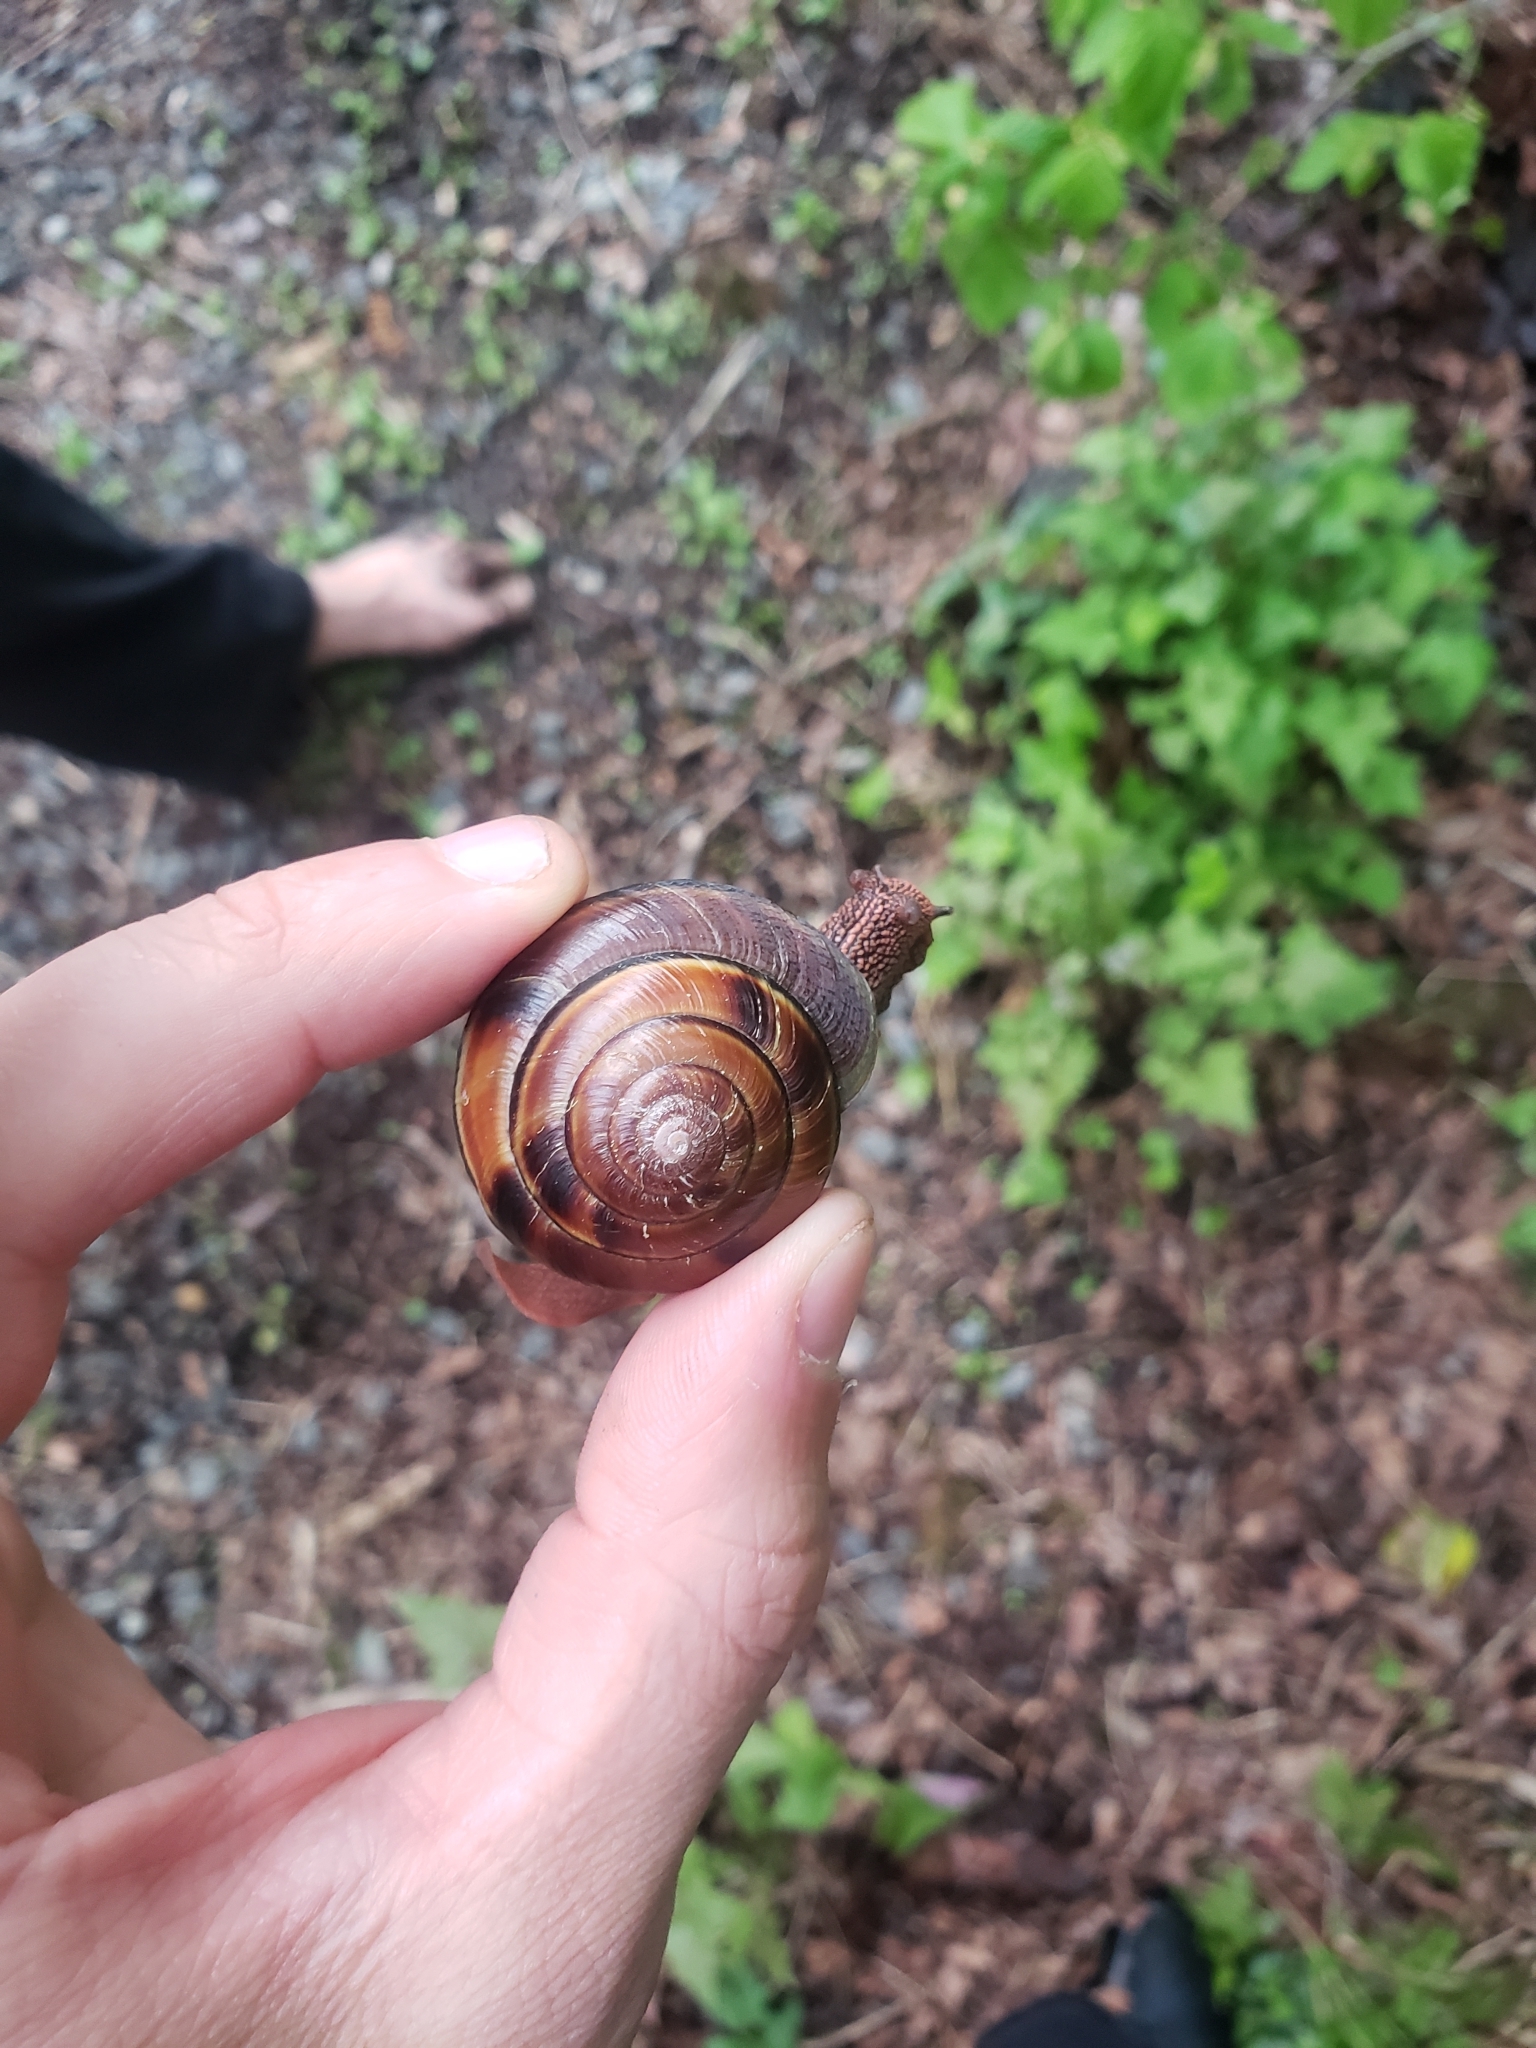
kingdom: Animalia
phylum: Mollusca
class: Gastropoda
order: Stylommatophora
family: Xanthonychidae
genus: Monadenia
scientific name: Monadenia fidelis
